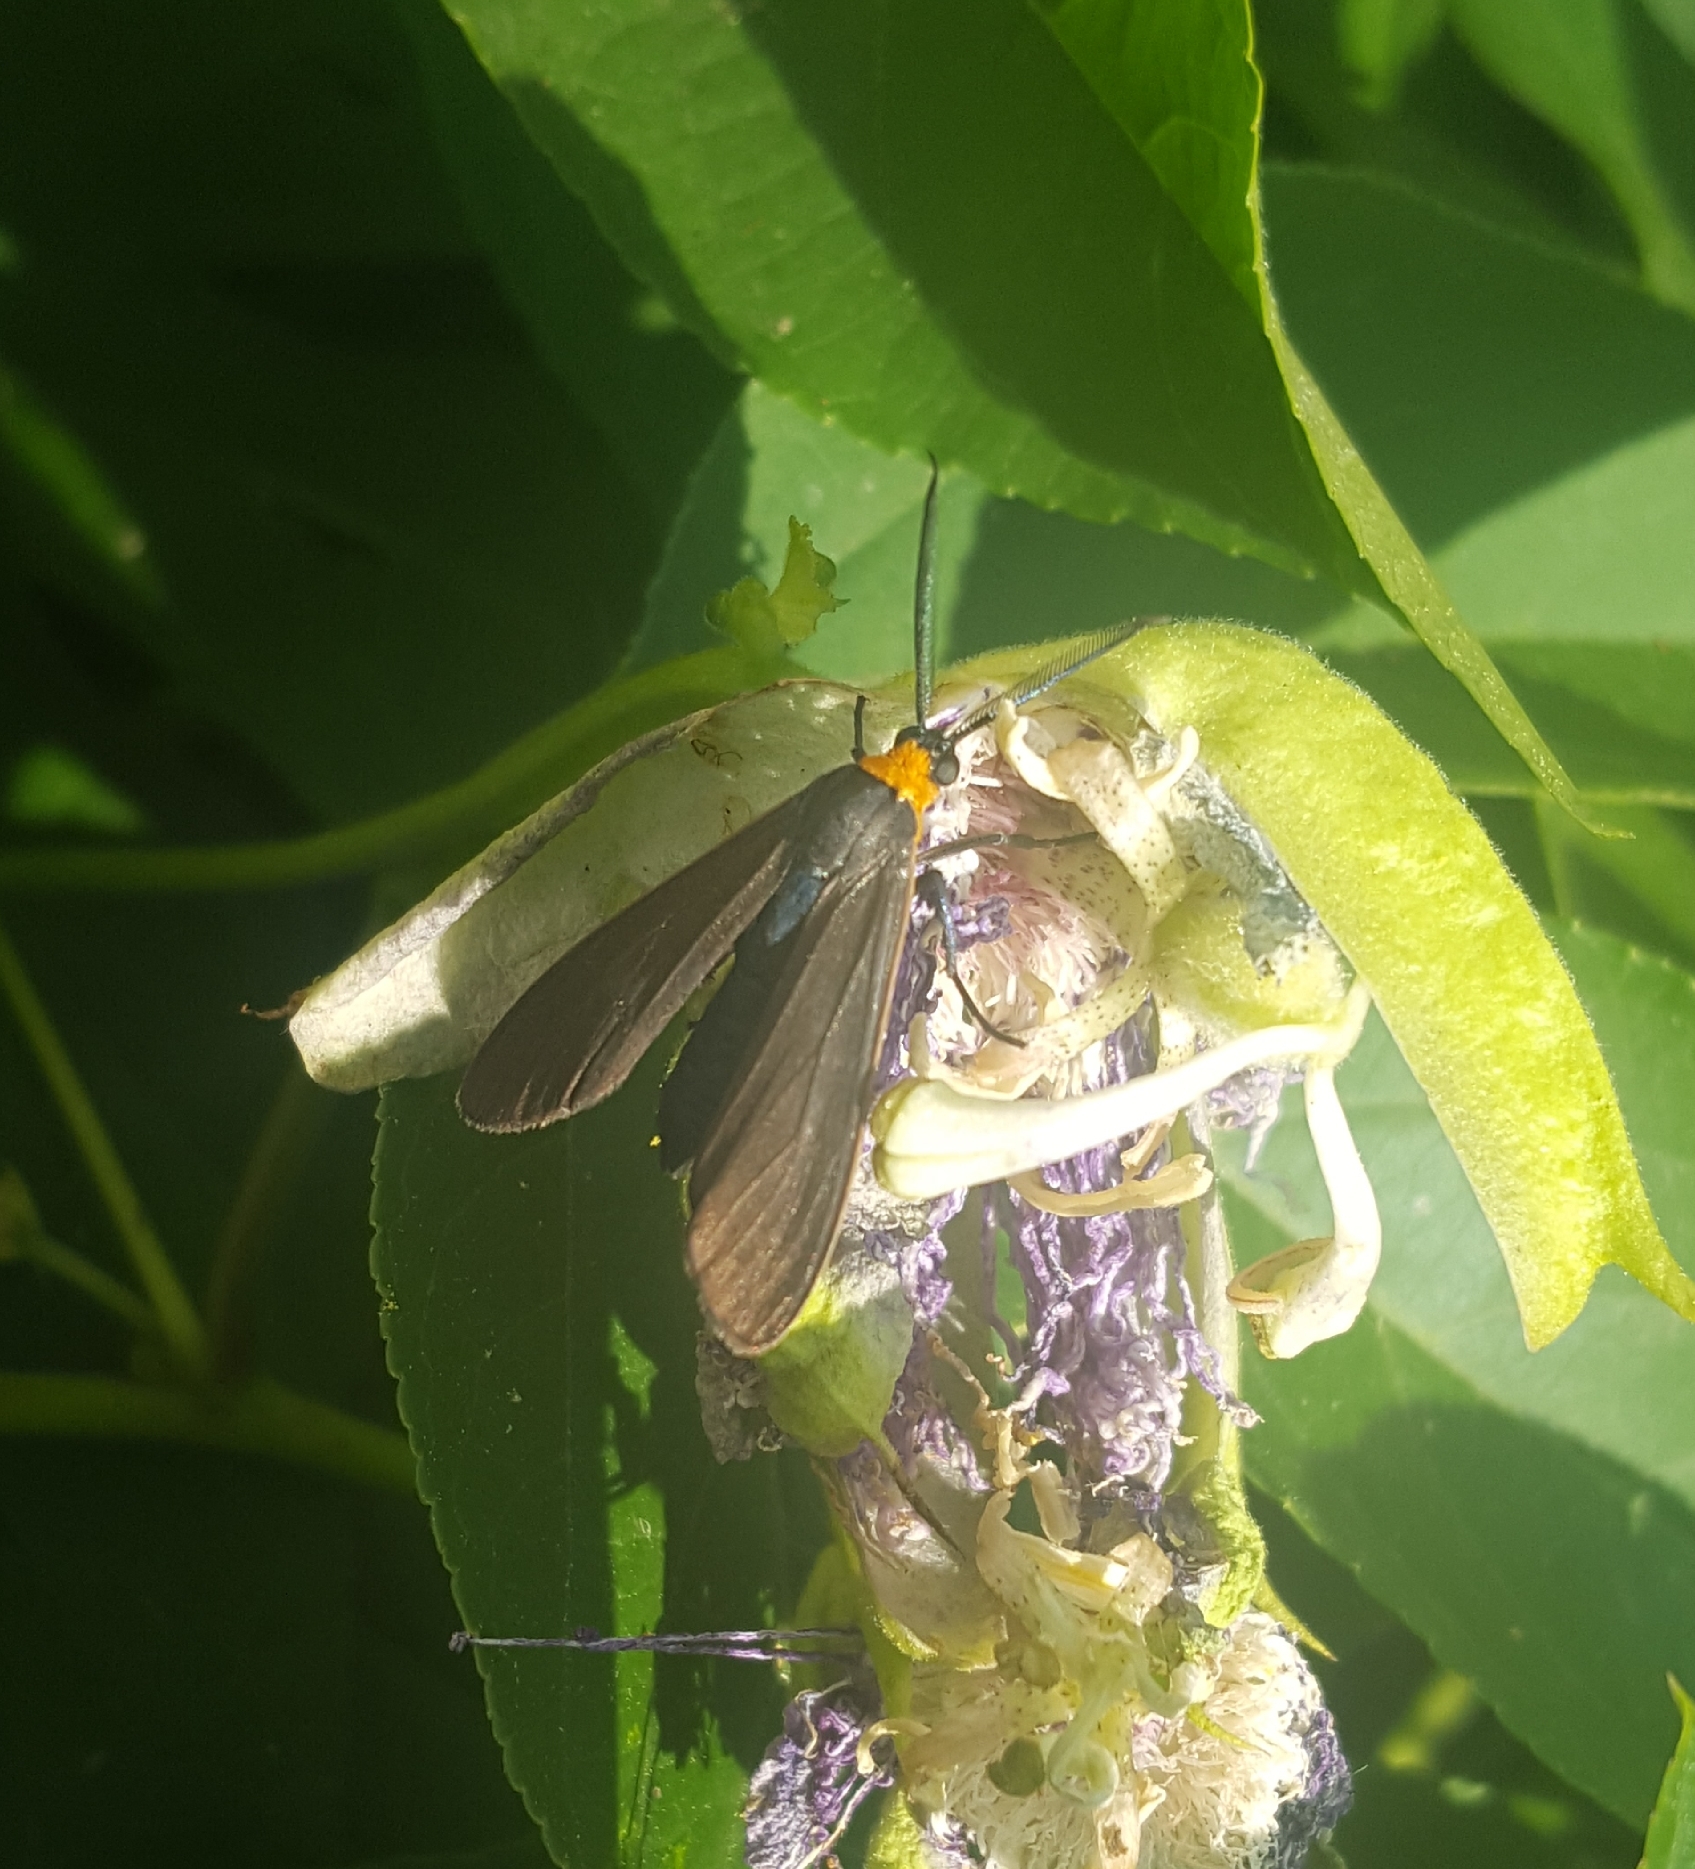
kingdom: Animalia
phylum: Arthropoda
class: Insecta
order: Lepidoptera
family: Erebidae
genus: Cisseps
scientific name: Cisseps fulvicollis
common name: Yellow-collared scape moth
